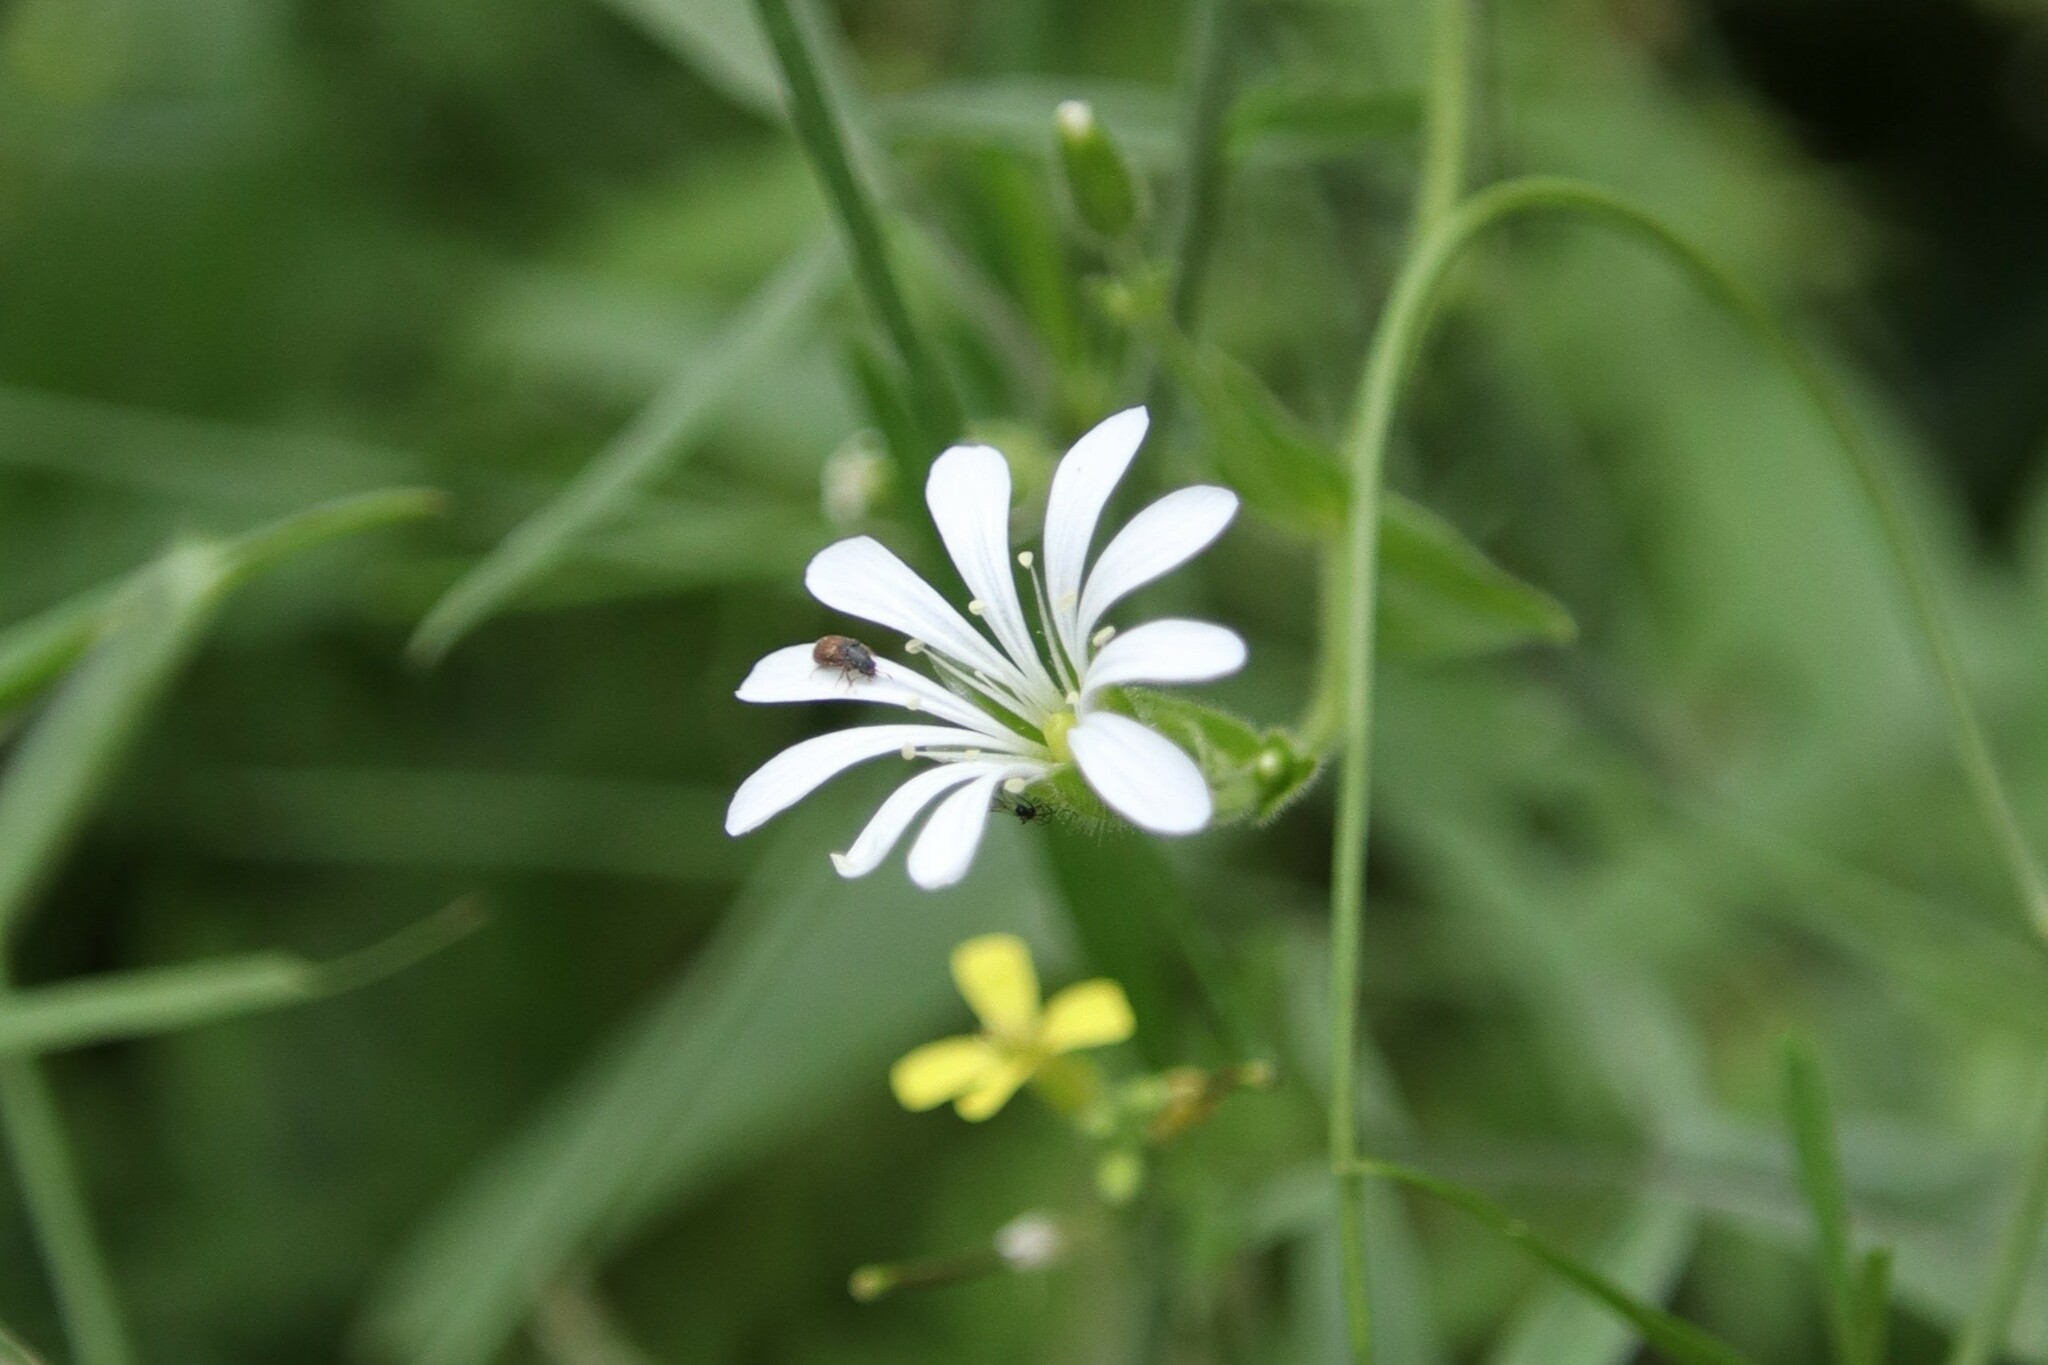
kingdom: Plantae
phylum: Tracheophyta
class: Magnoliopsida
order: Caryophyllales
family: Caryophyllaceae
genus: Stellaria
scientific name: Stellaria chilensis
